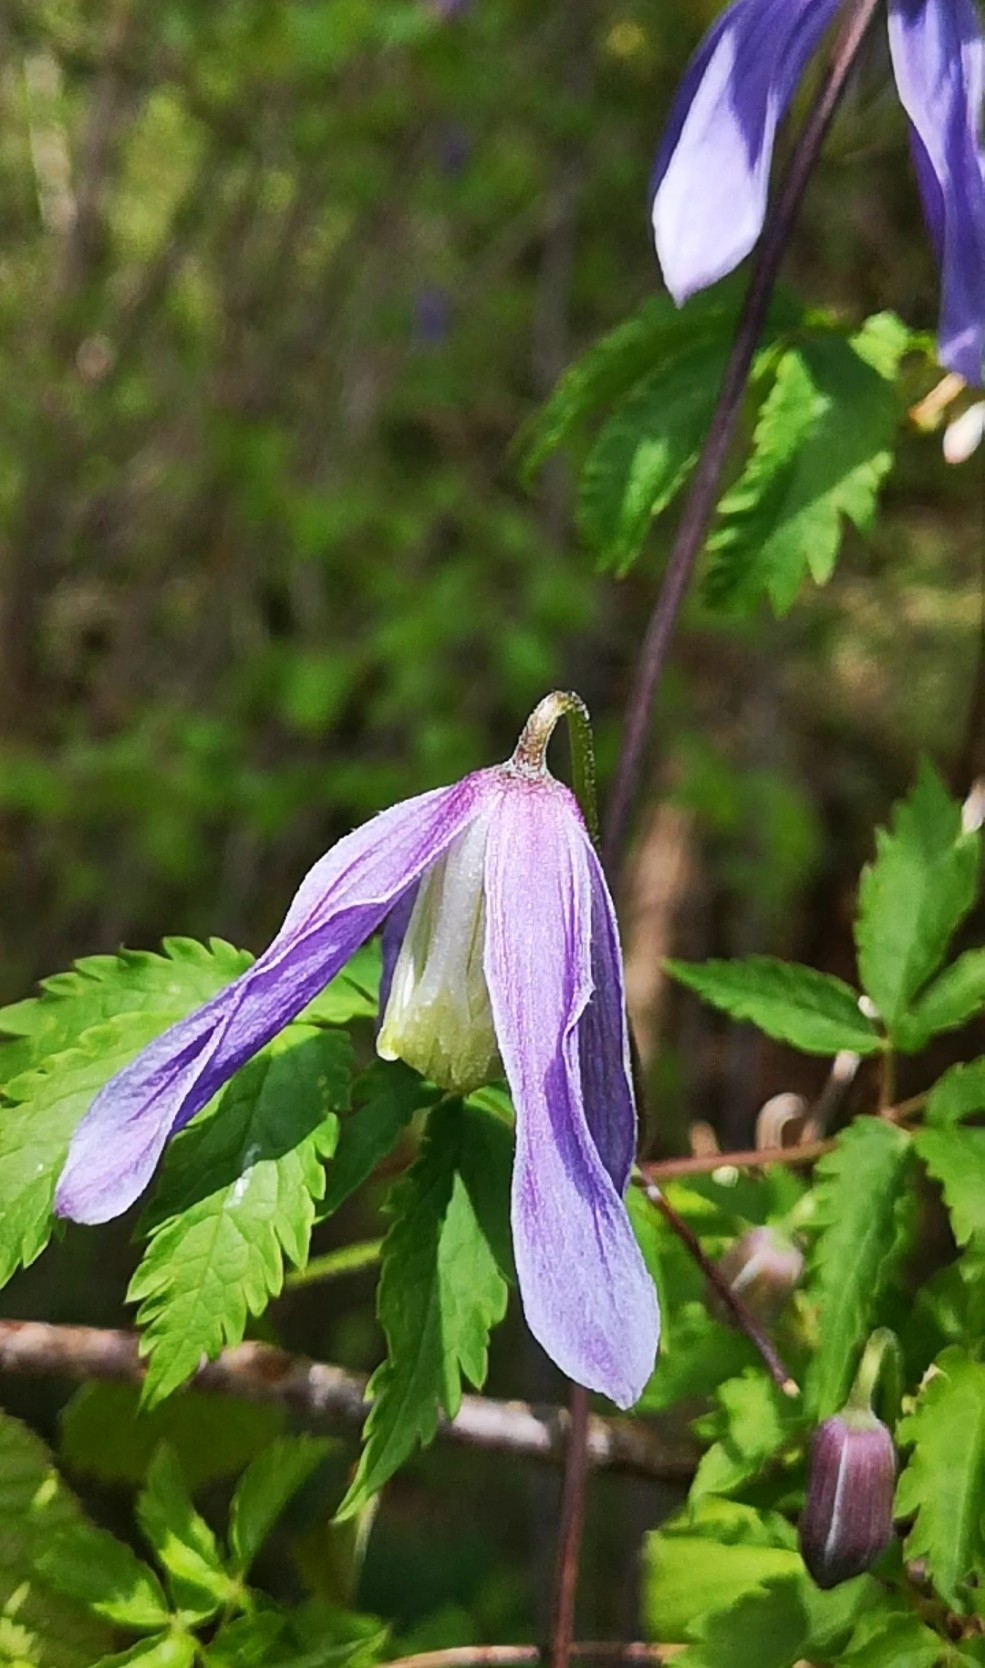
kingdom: Plantae
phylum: Tracheophyta
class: Magnoliopsida
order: Ranunculales
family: Ranunculaceae
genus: Clematis
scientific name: Clematis alpina
